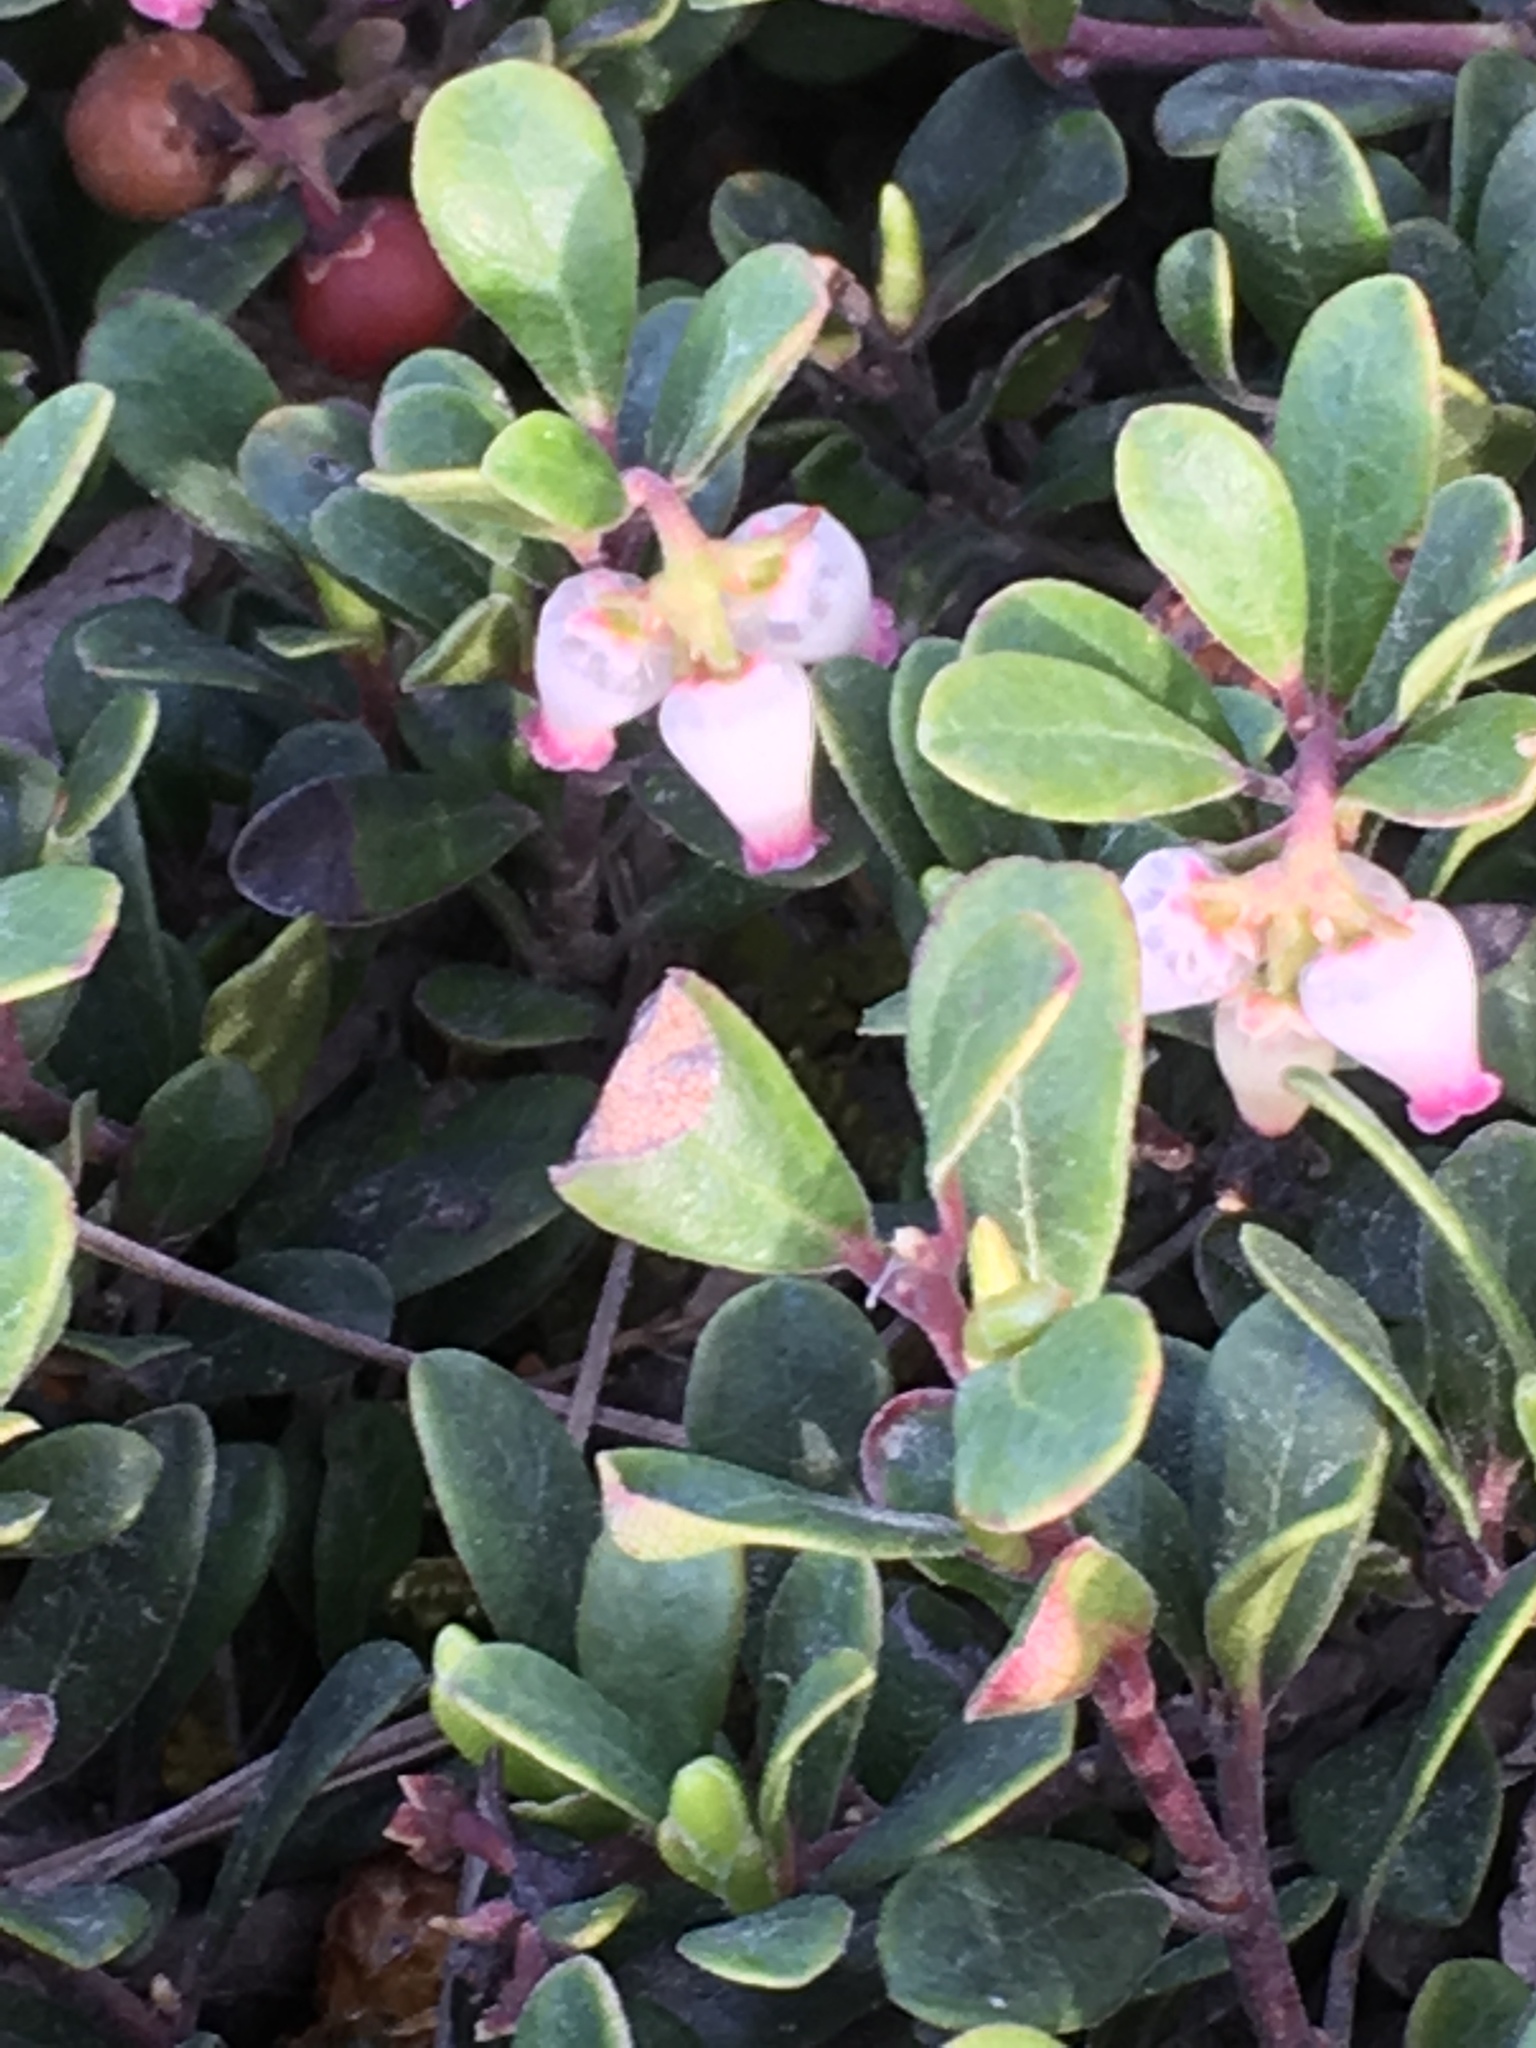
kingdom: Plantae
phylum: Tracheophyta
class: Magnoliopsida
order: Ericales
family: Ericaceae
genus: Arctostaphylos
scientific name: Arctostaphylos uva-ursi
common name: Bearberry
